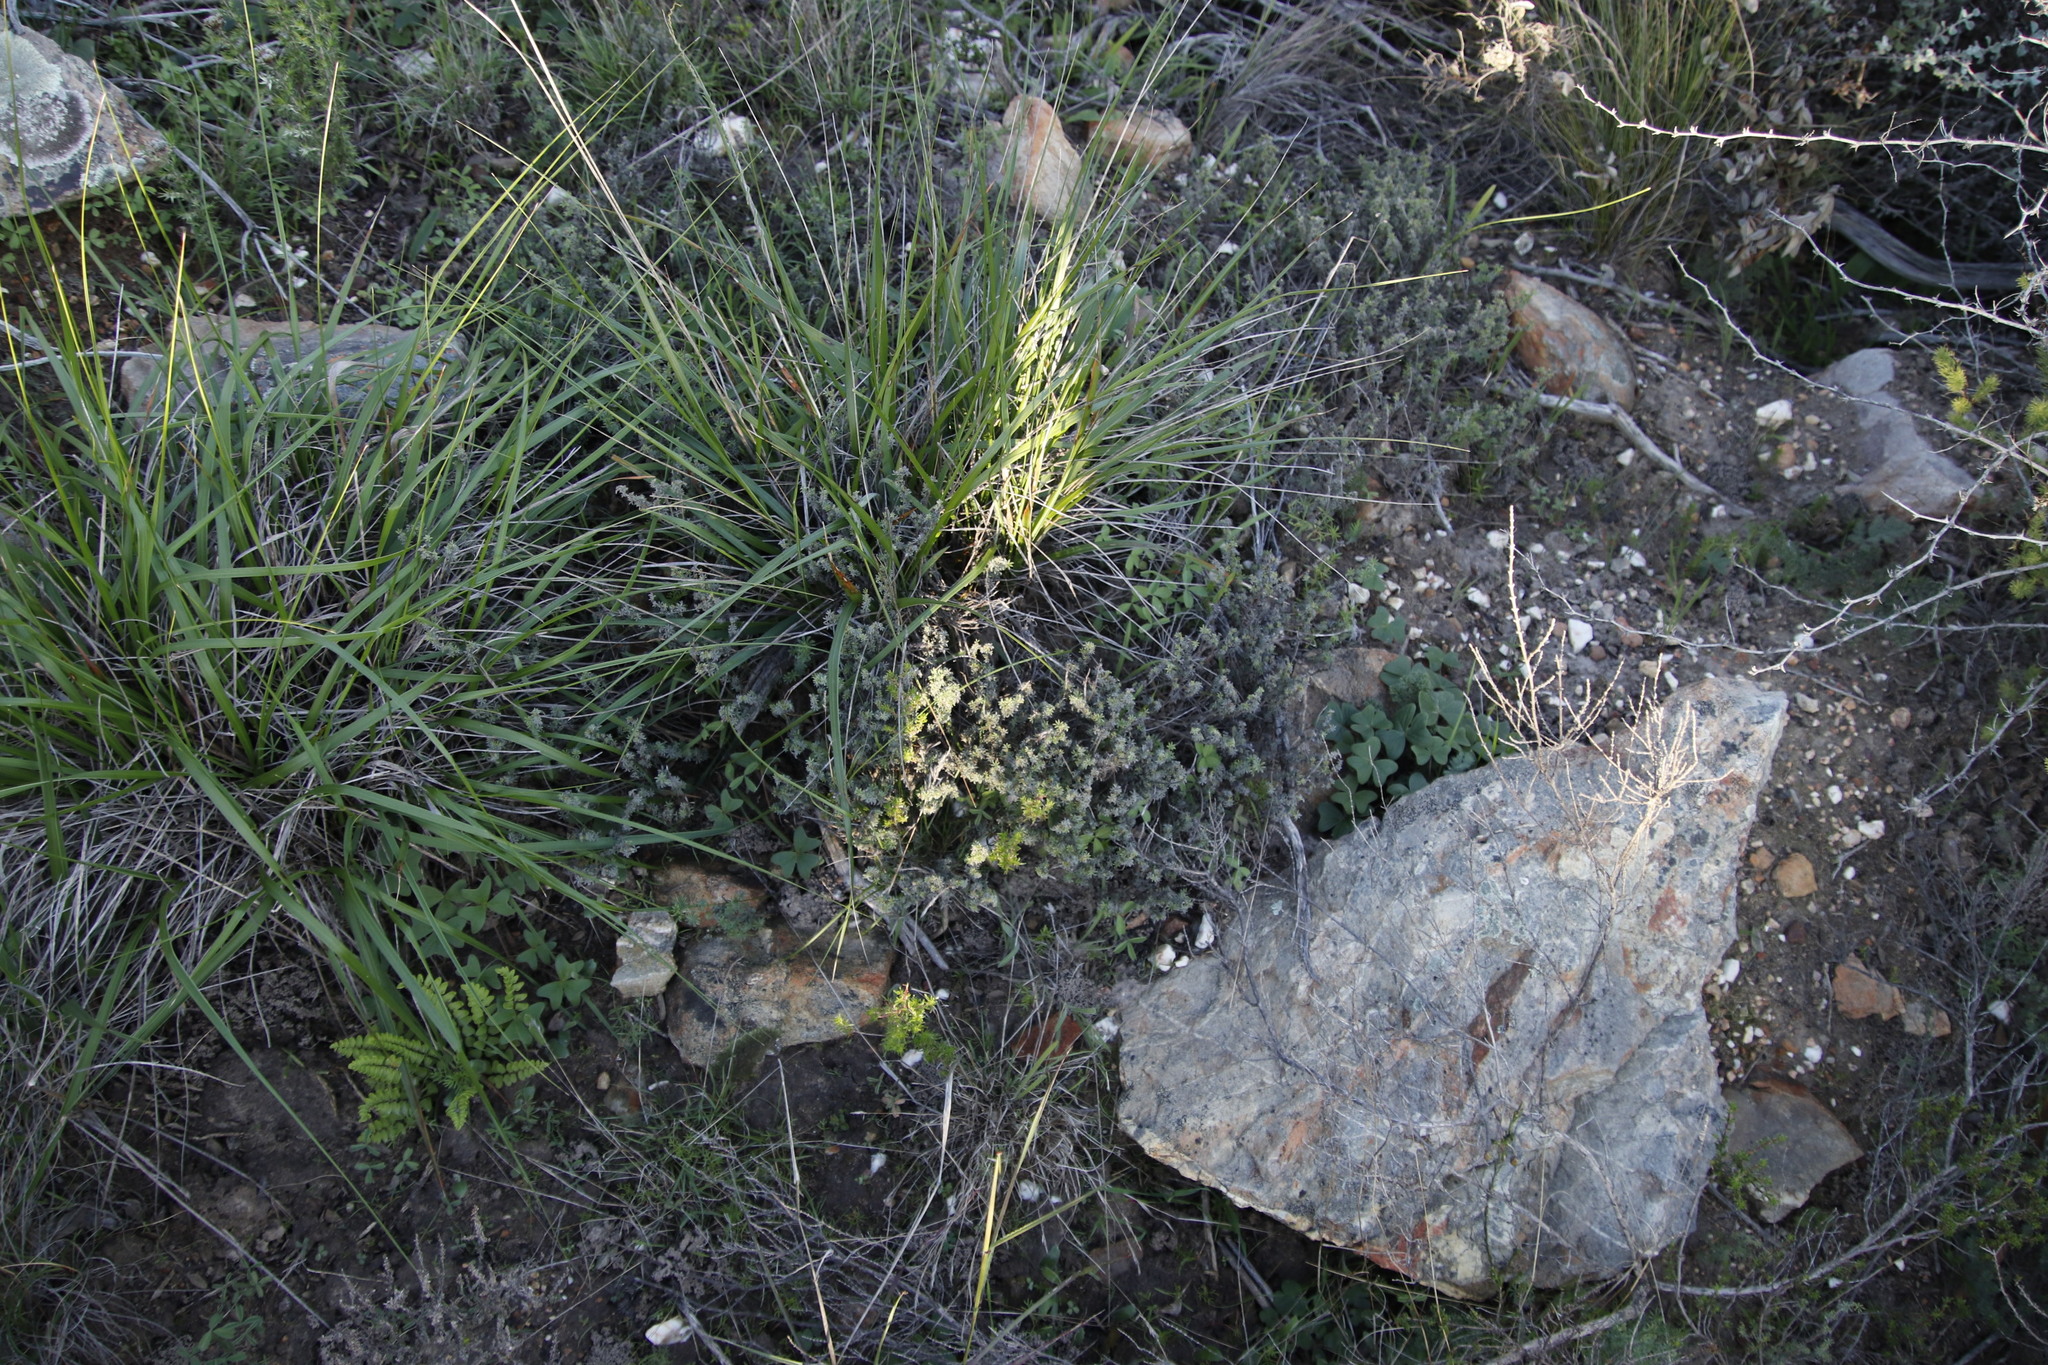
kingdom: Plantae
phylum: Tracheophyta
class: Magnoliopsida
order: Fabales
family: Fabaceae
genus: Indigofera
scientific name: Indigofera digitata
